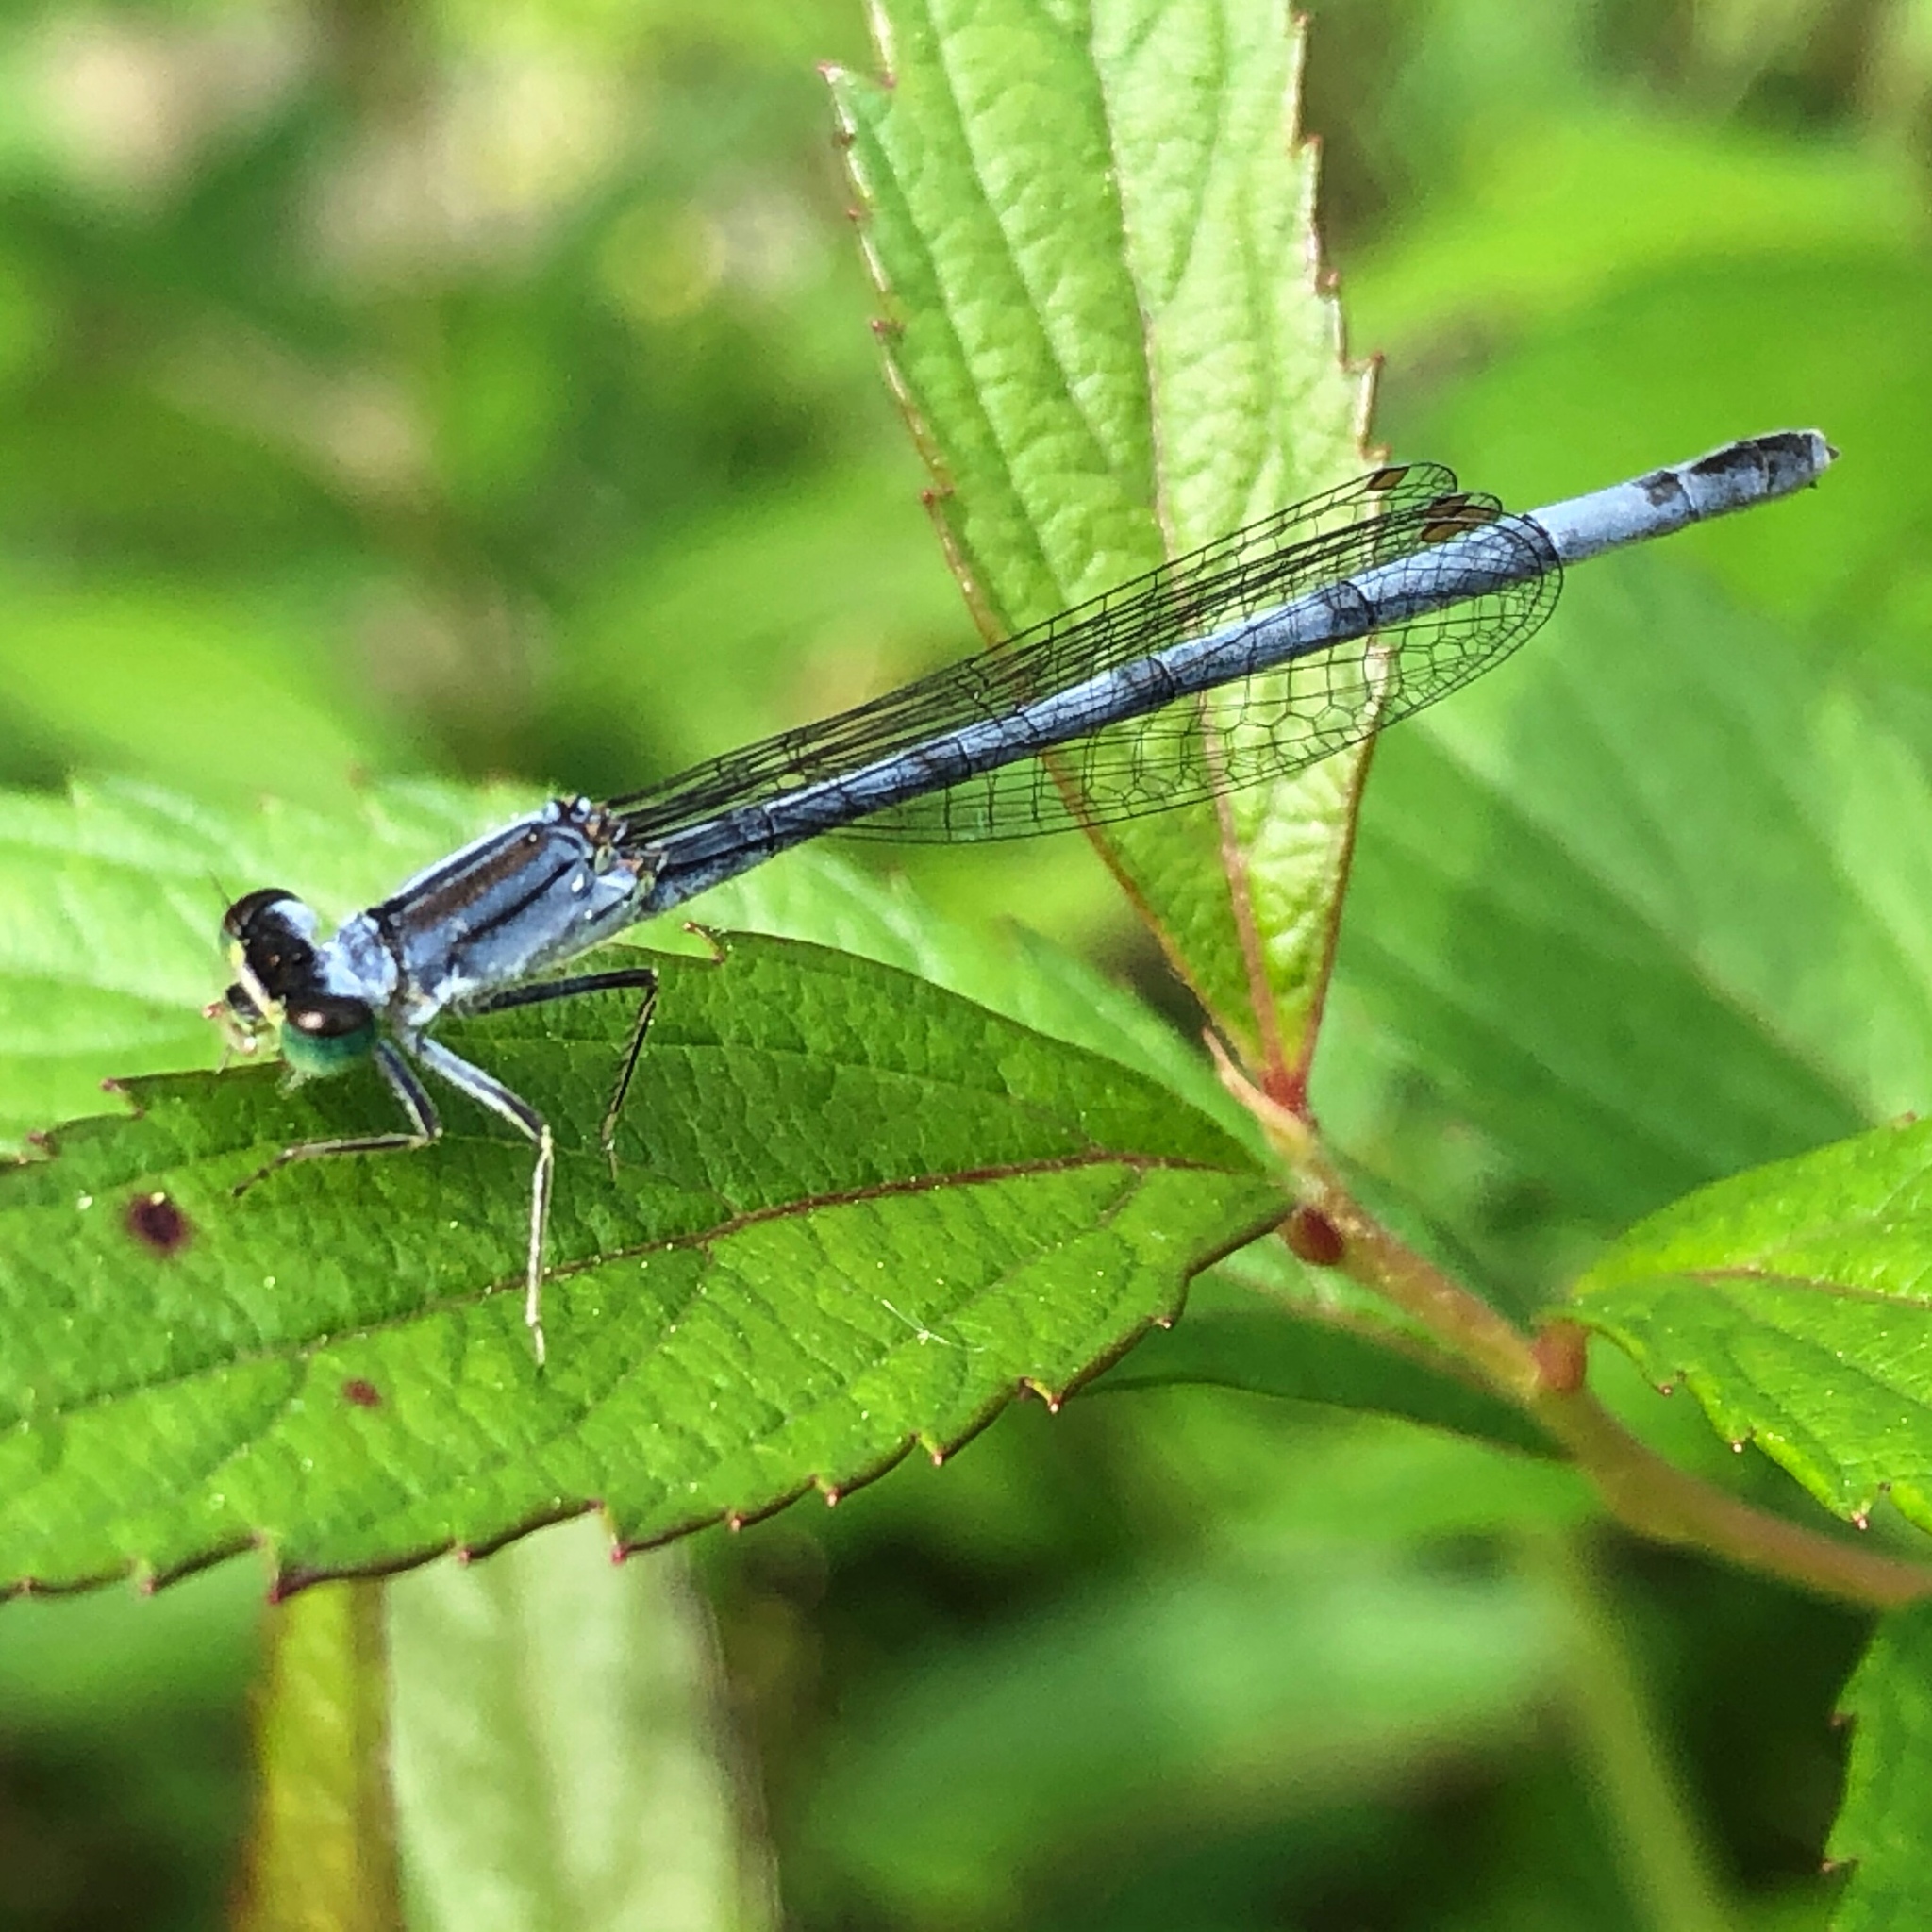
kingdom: Animalia
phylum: Arthropoda
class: Insecta
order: Odonata
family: Coenagrionidae
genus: Ischnura
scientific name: Ischnura verticalis
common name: Eastern forktail
